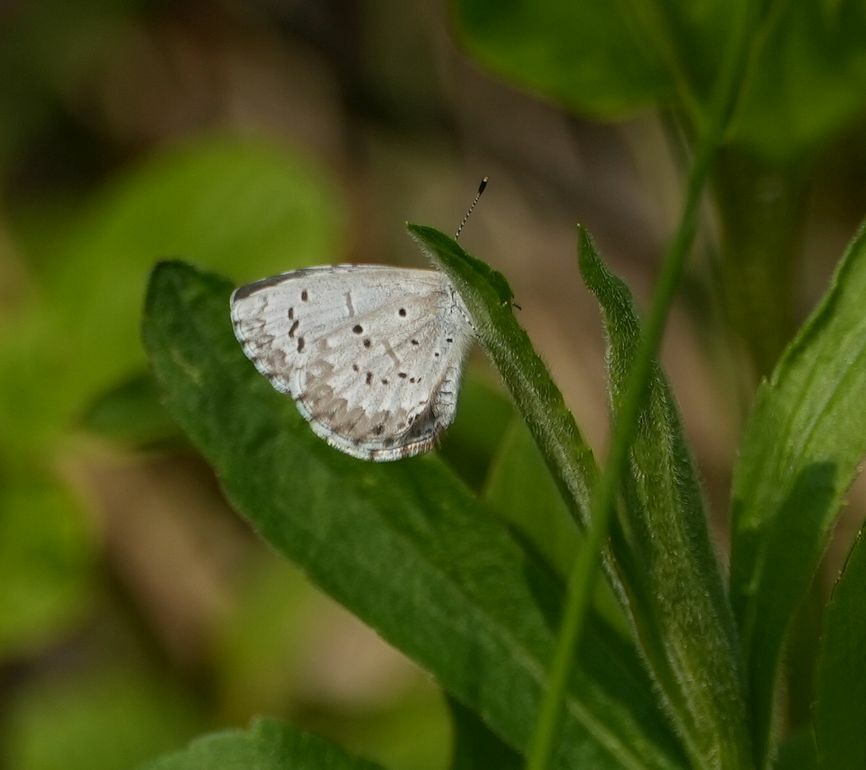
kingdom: Animalia
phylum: Arthropoda
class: Insecta
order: Lepidoptera
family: Lycaenidae
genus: Celastrina
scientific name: Celastrina lucia
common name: Lucia azure
